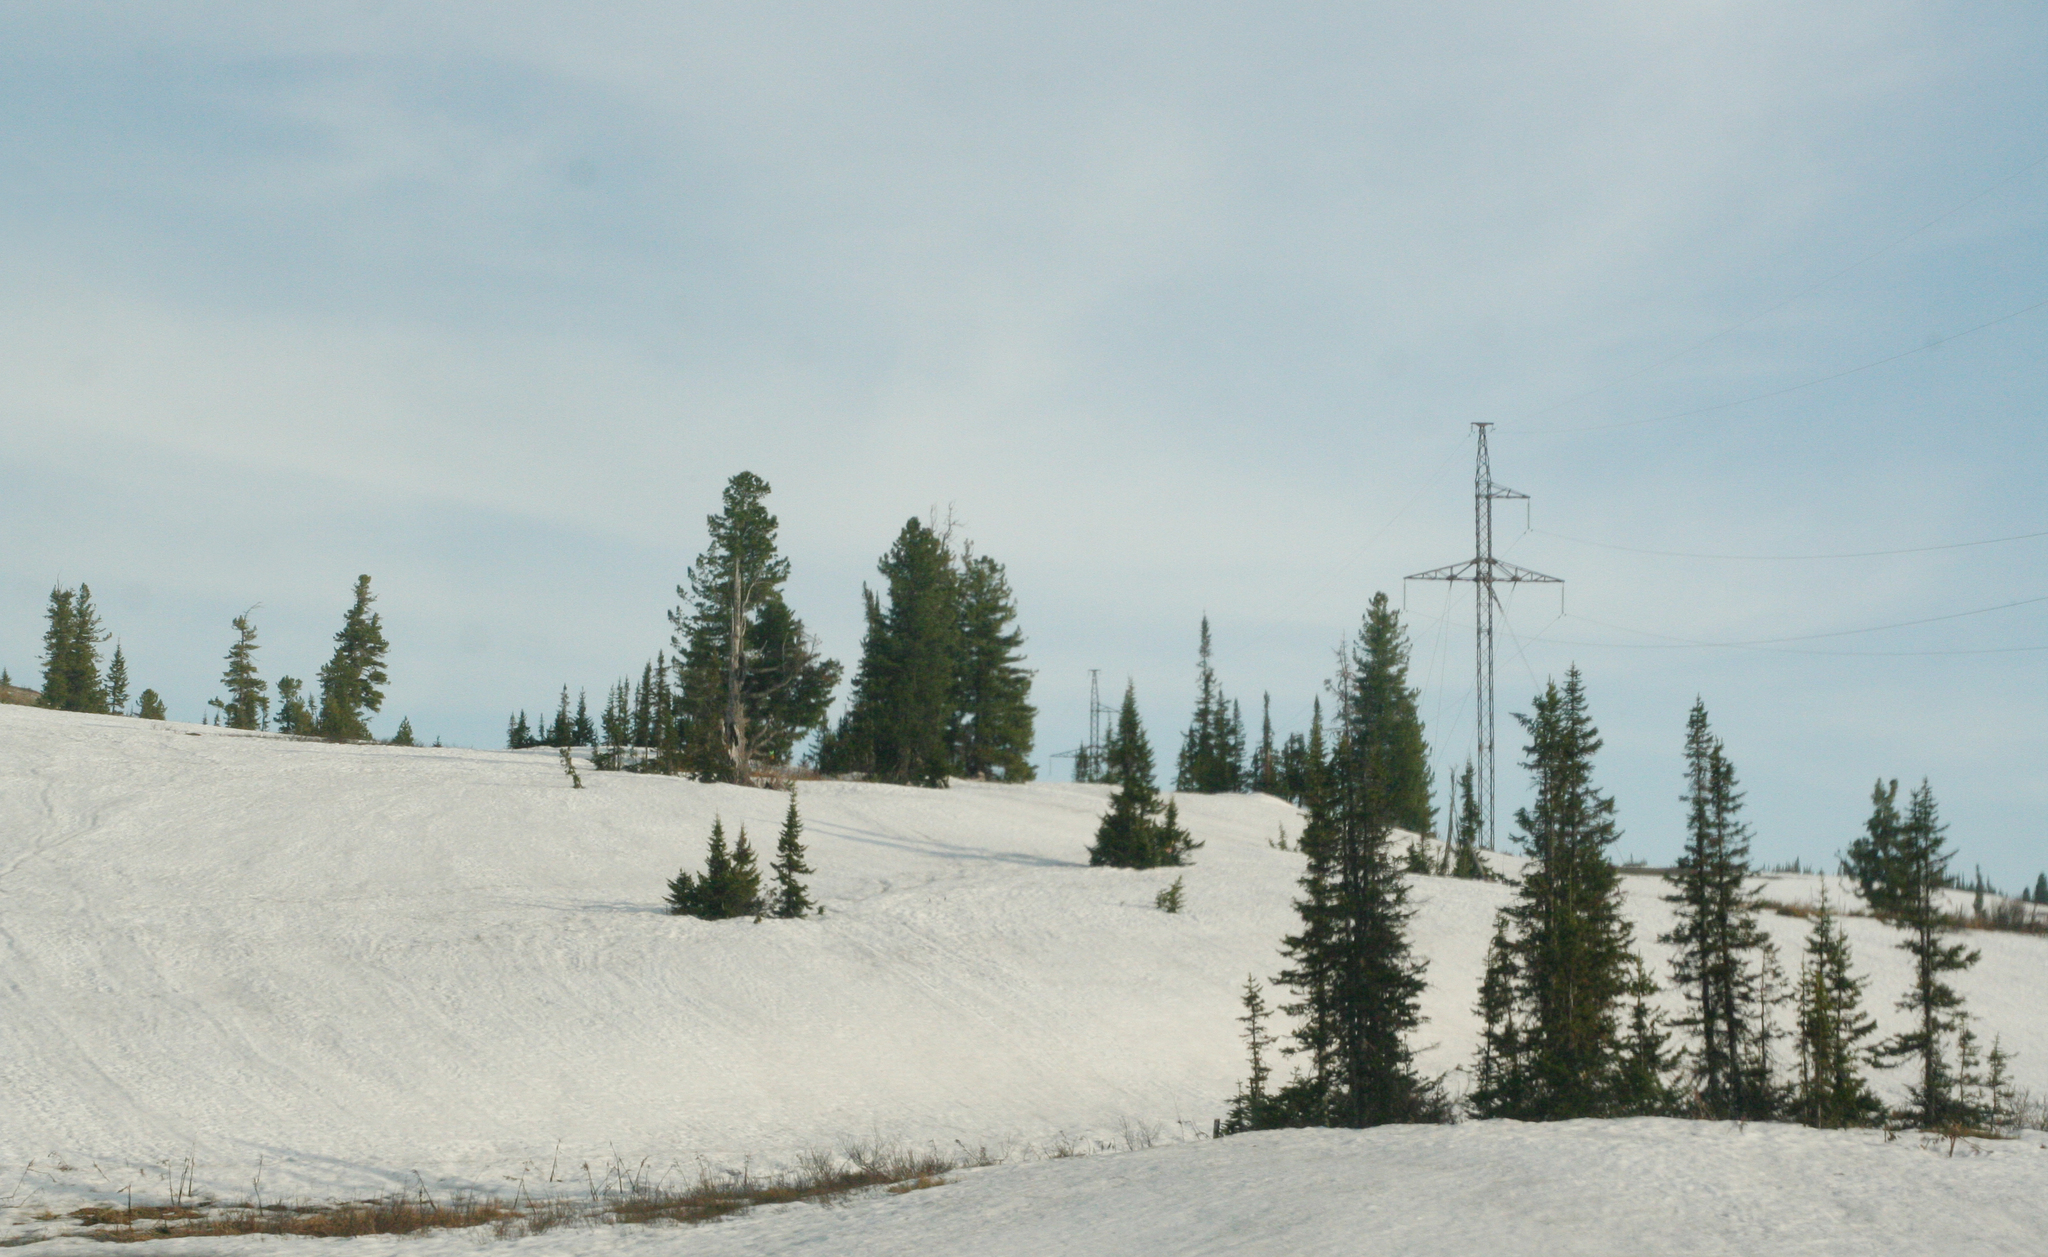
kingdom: Plantae
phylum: Tracheophyta
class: Pinopsida
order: Pinales
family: Pinaceae
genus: Pinus
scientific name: Pinus sibirica
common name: Siberian pine
